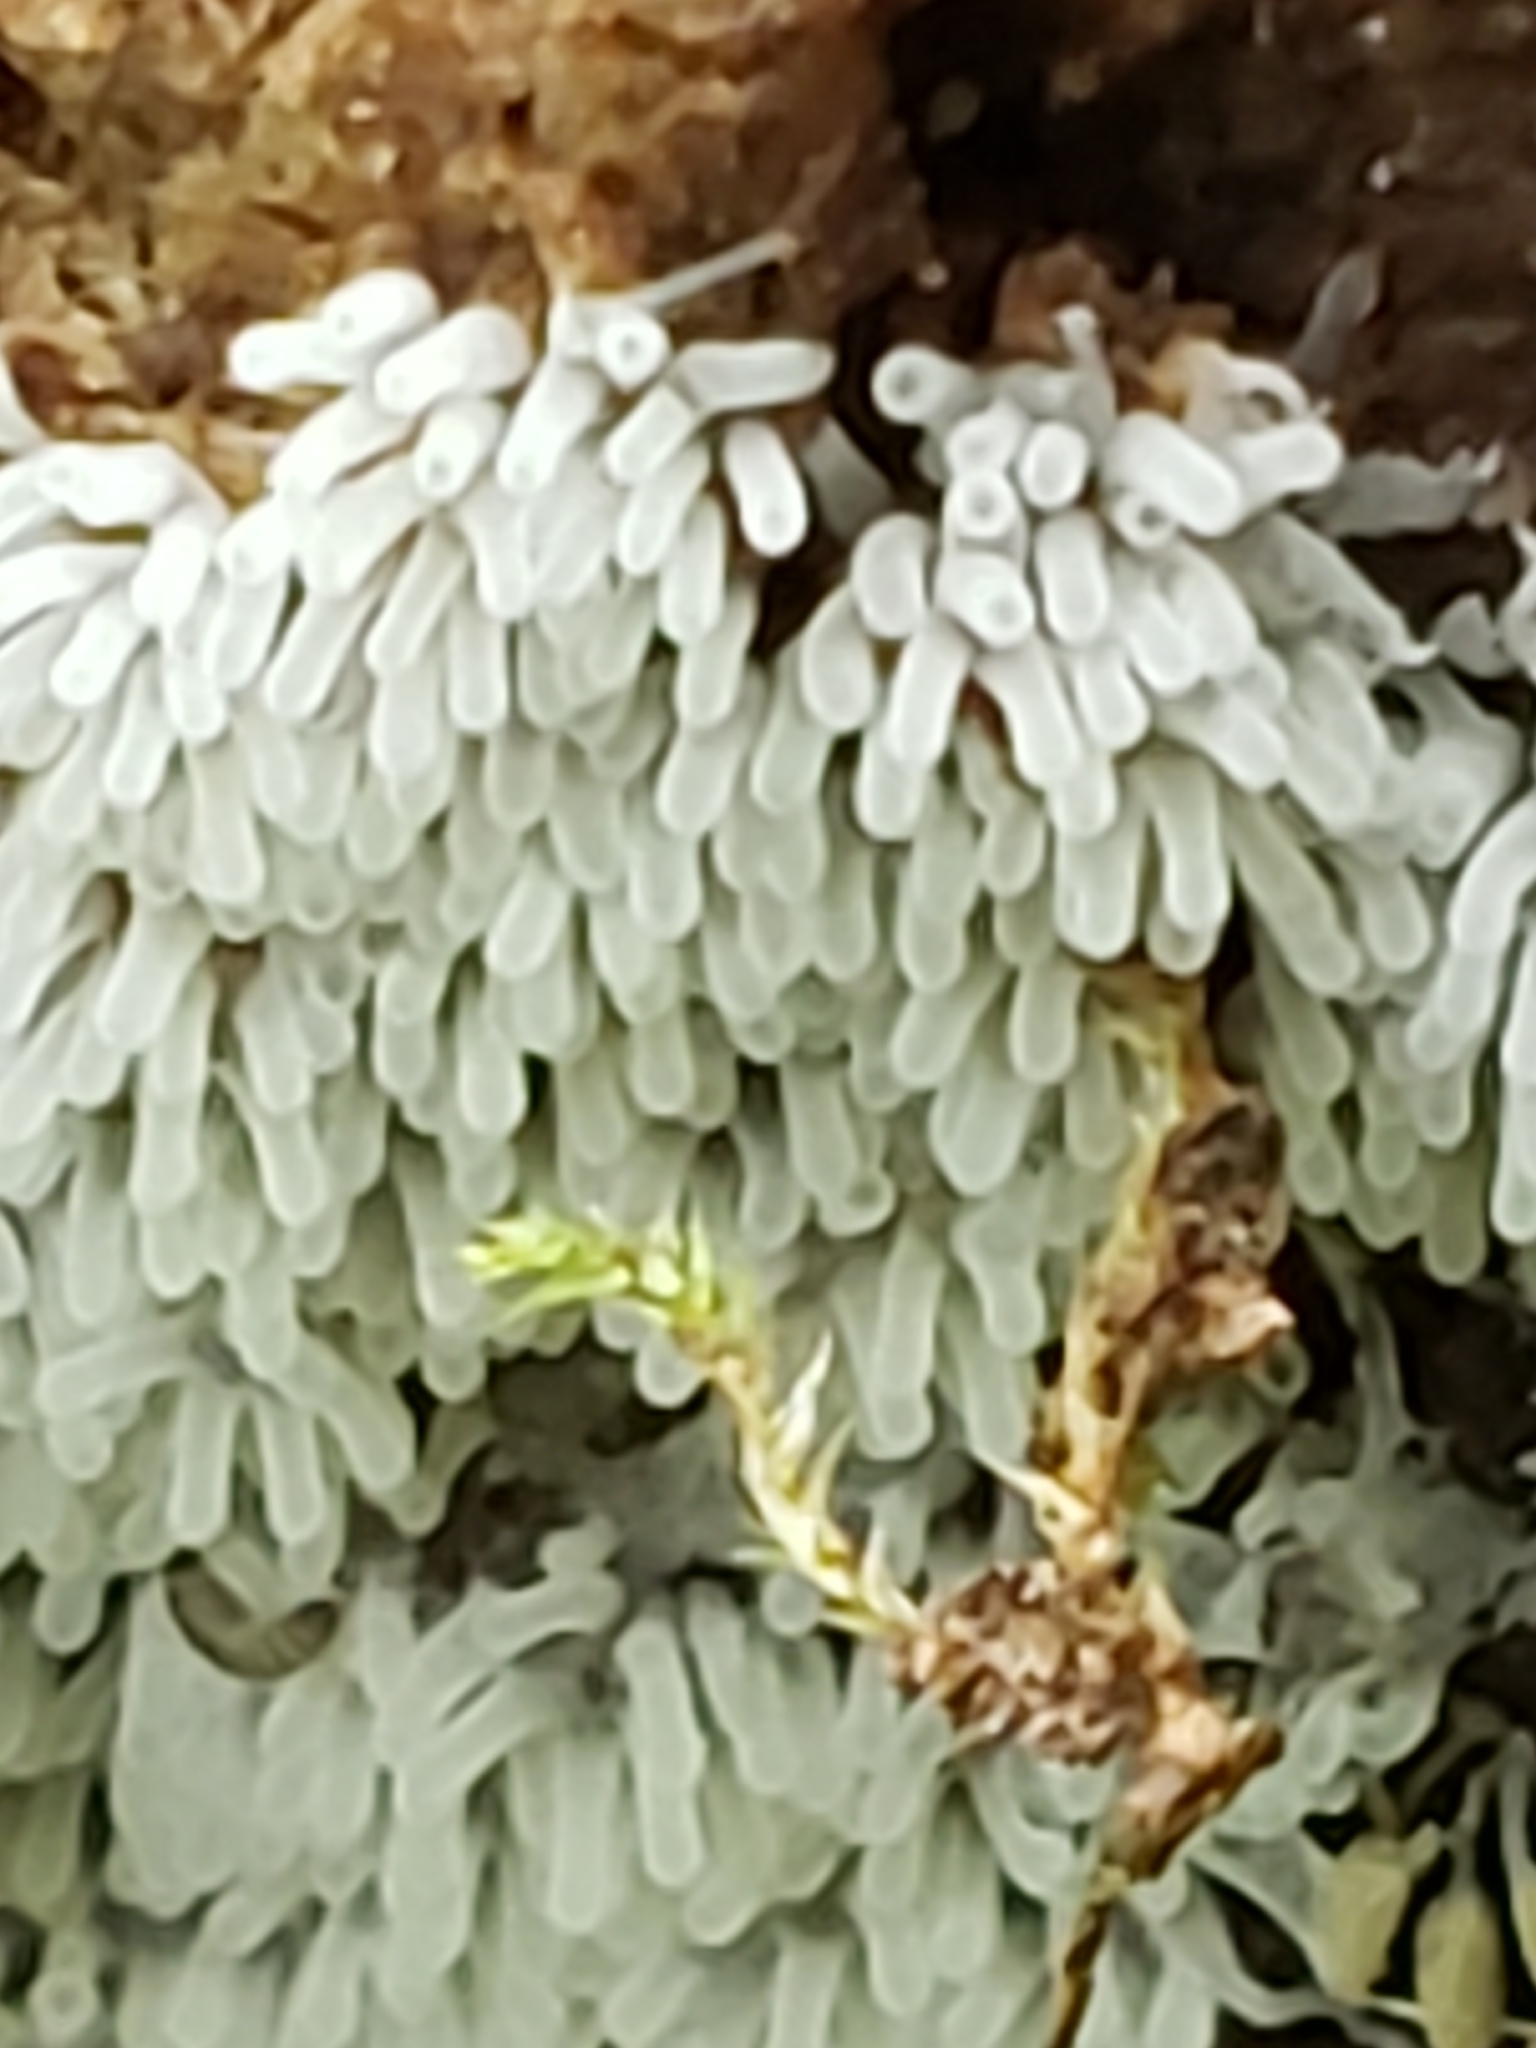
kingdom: Protozoa
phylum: Mycetozoa
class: Protosteliomycetes
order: Ceratiomyxales
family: Ceratiomyxaceae
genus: Ceratiomyxa
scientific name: Ceratiomyxa fruticulosa
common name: Honeycomb coral slime mold
